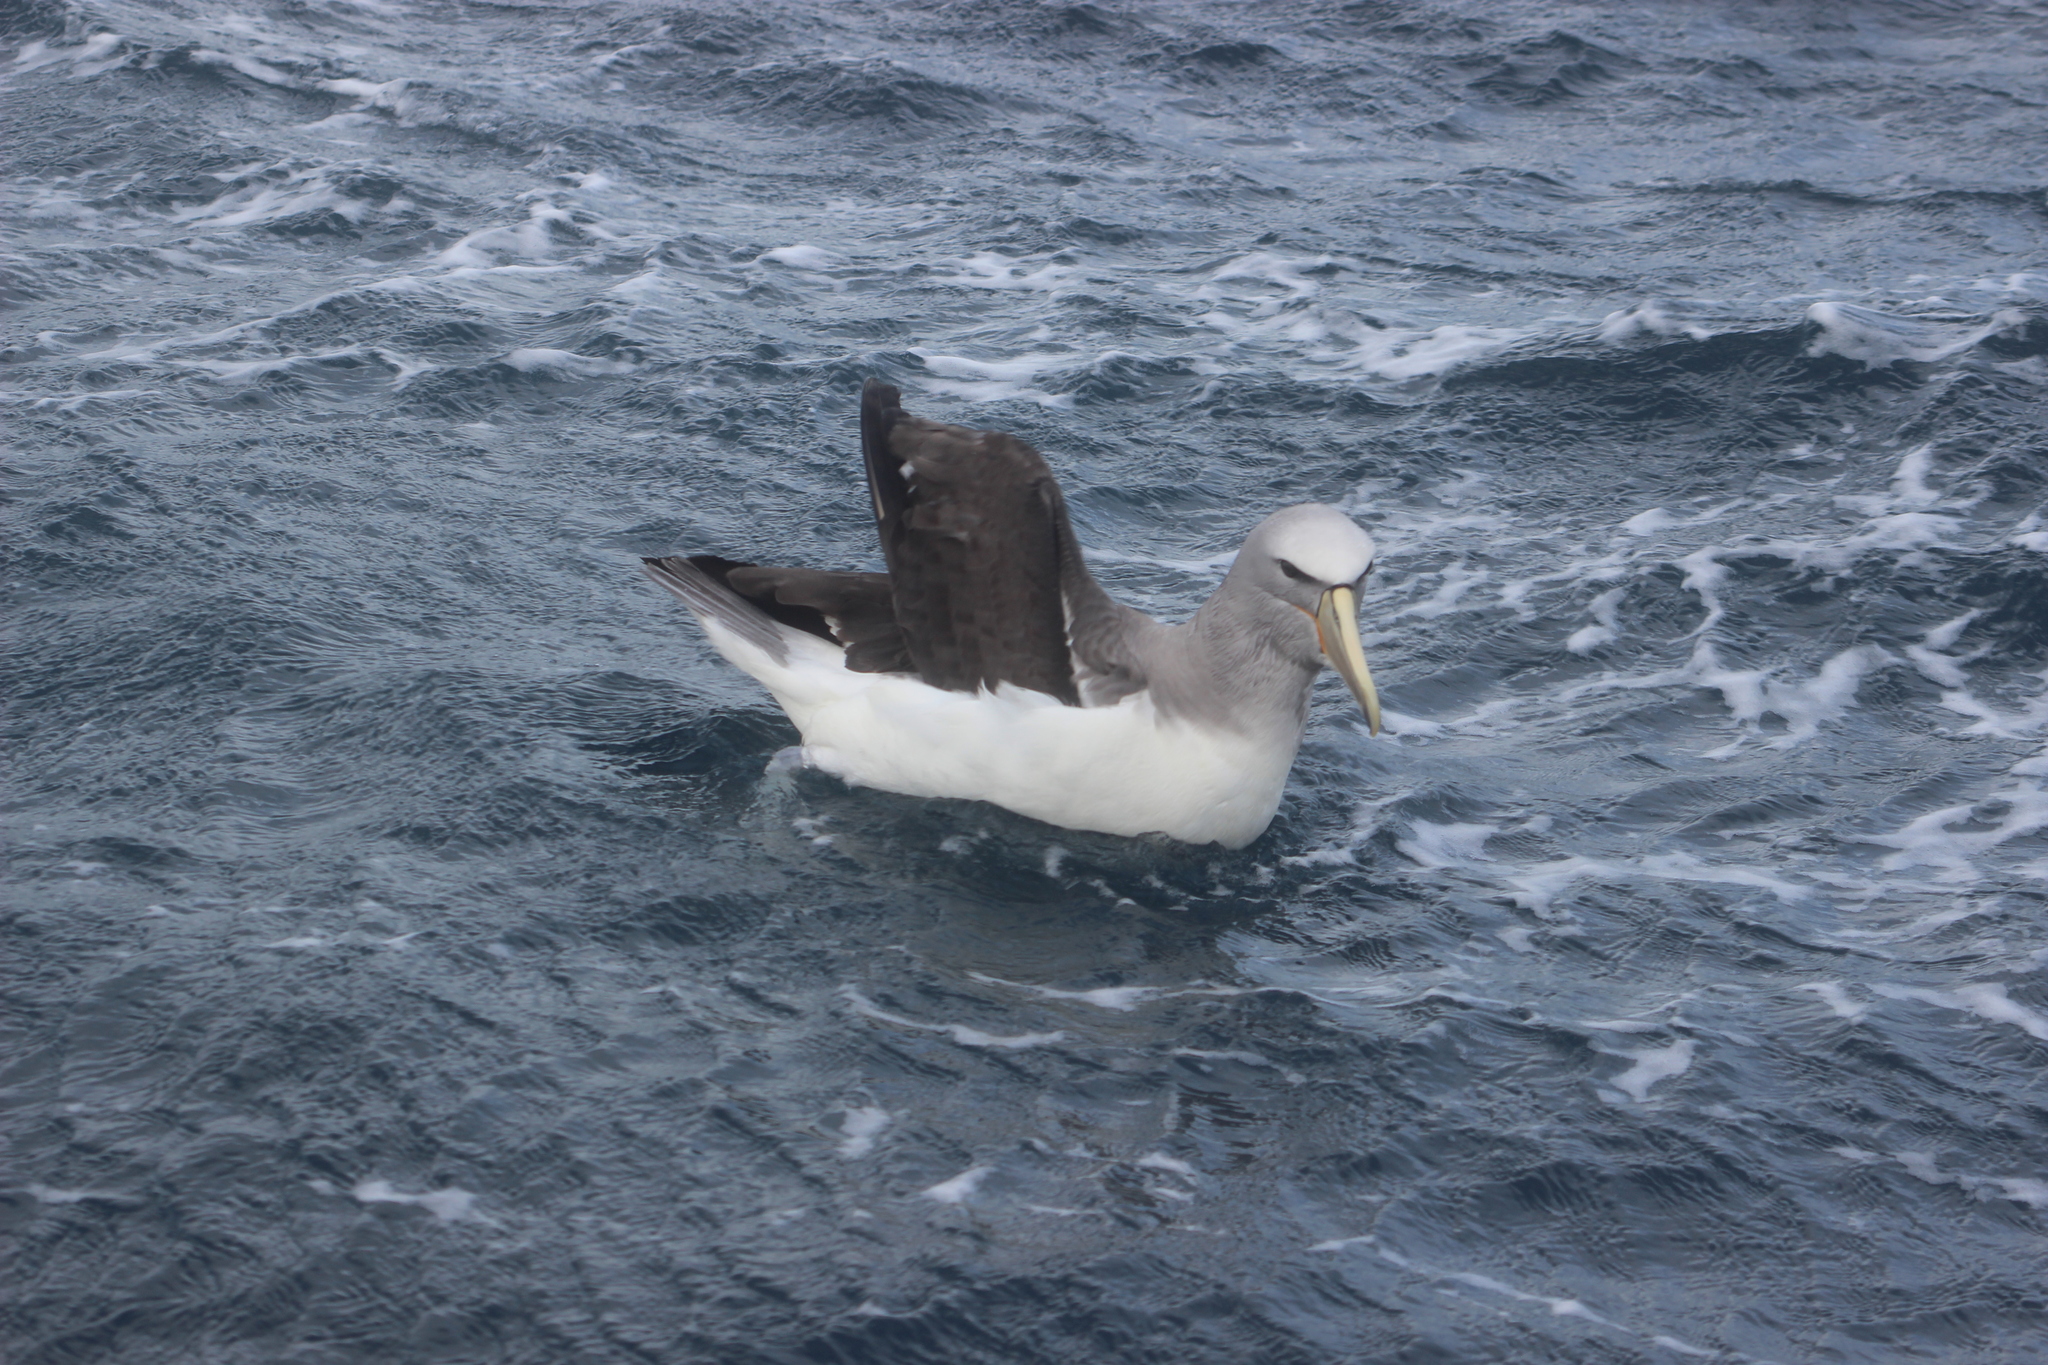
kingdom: Animalia
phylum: Chordata
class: Aves
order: Procellariiformes
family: Diomedeidae
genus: Thalassarche
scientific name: Thalassarche salvini
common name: Salvin's albatross
